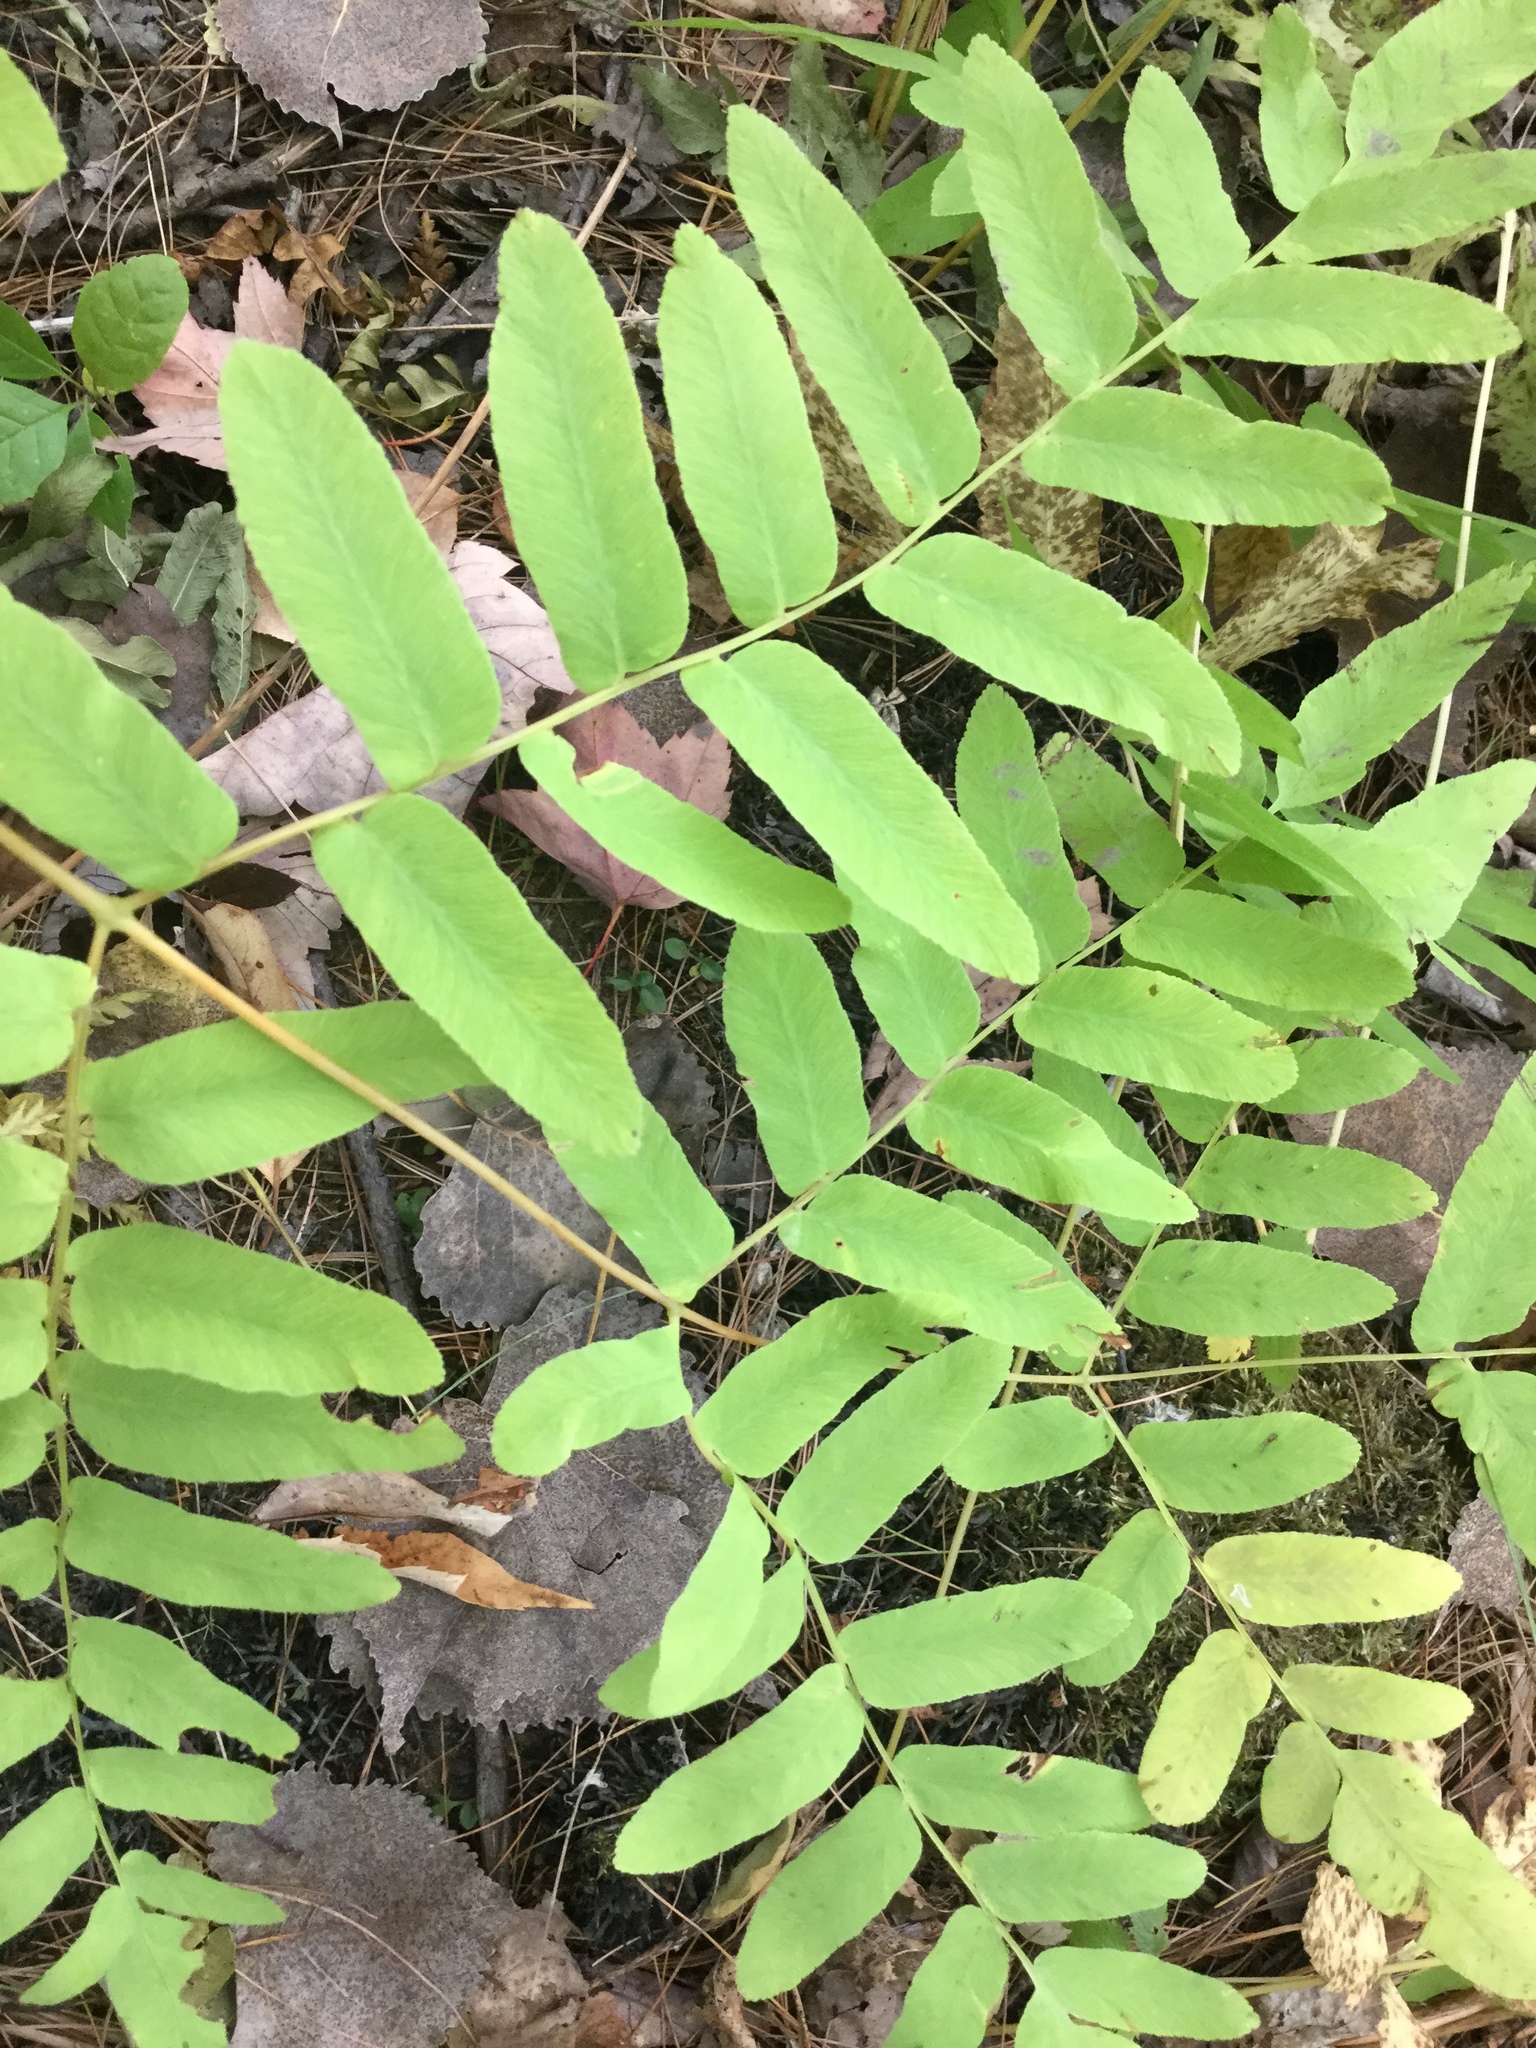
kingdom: Plantae
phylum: Tracheophyta
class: Polypodiopsida
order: Osmundales
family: Osmundaceae
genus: Osmunda
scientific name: Osmunda spectabilis
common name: American royal fern
